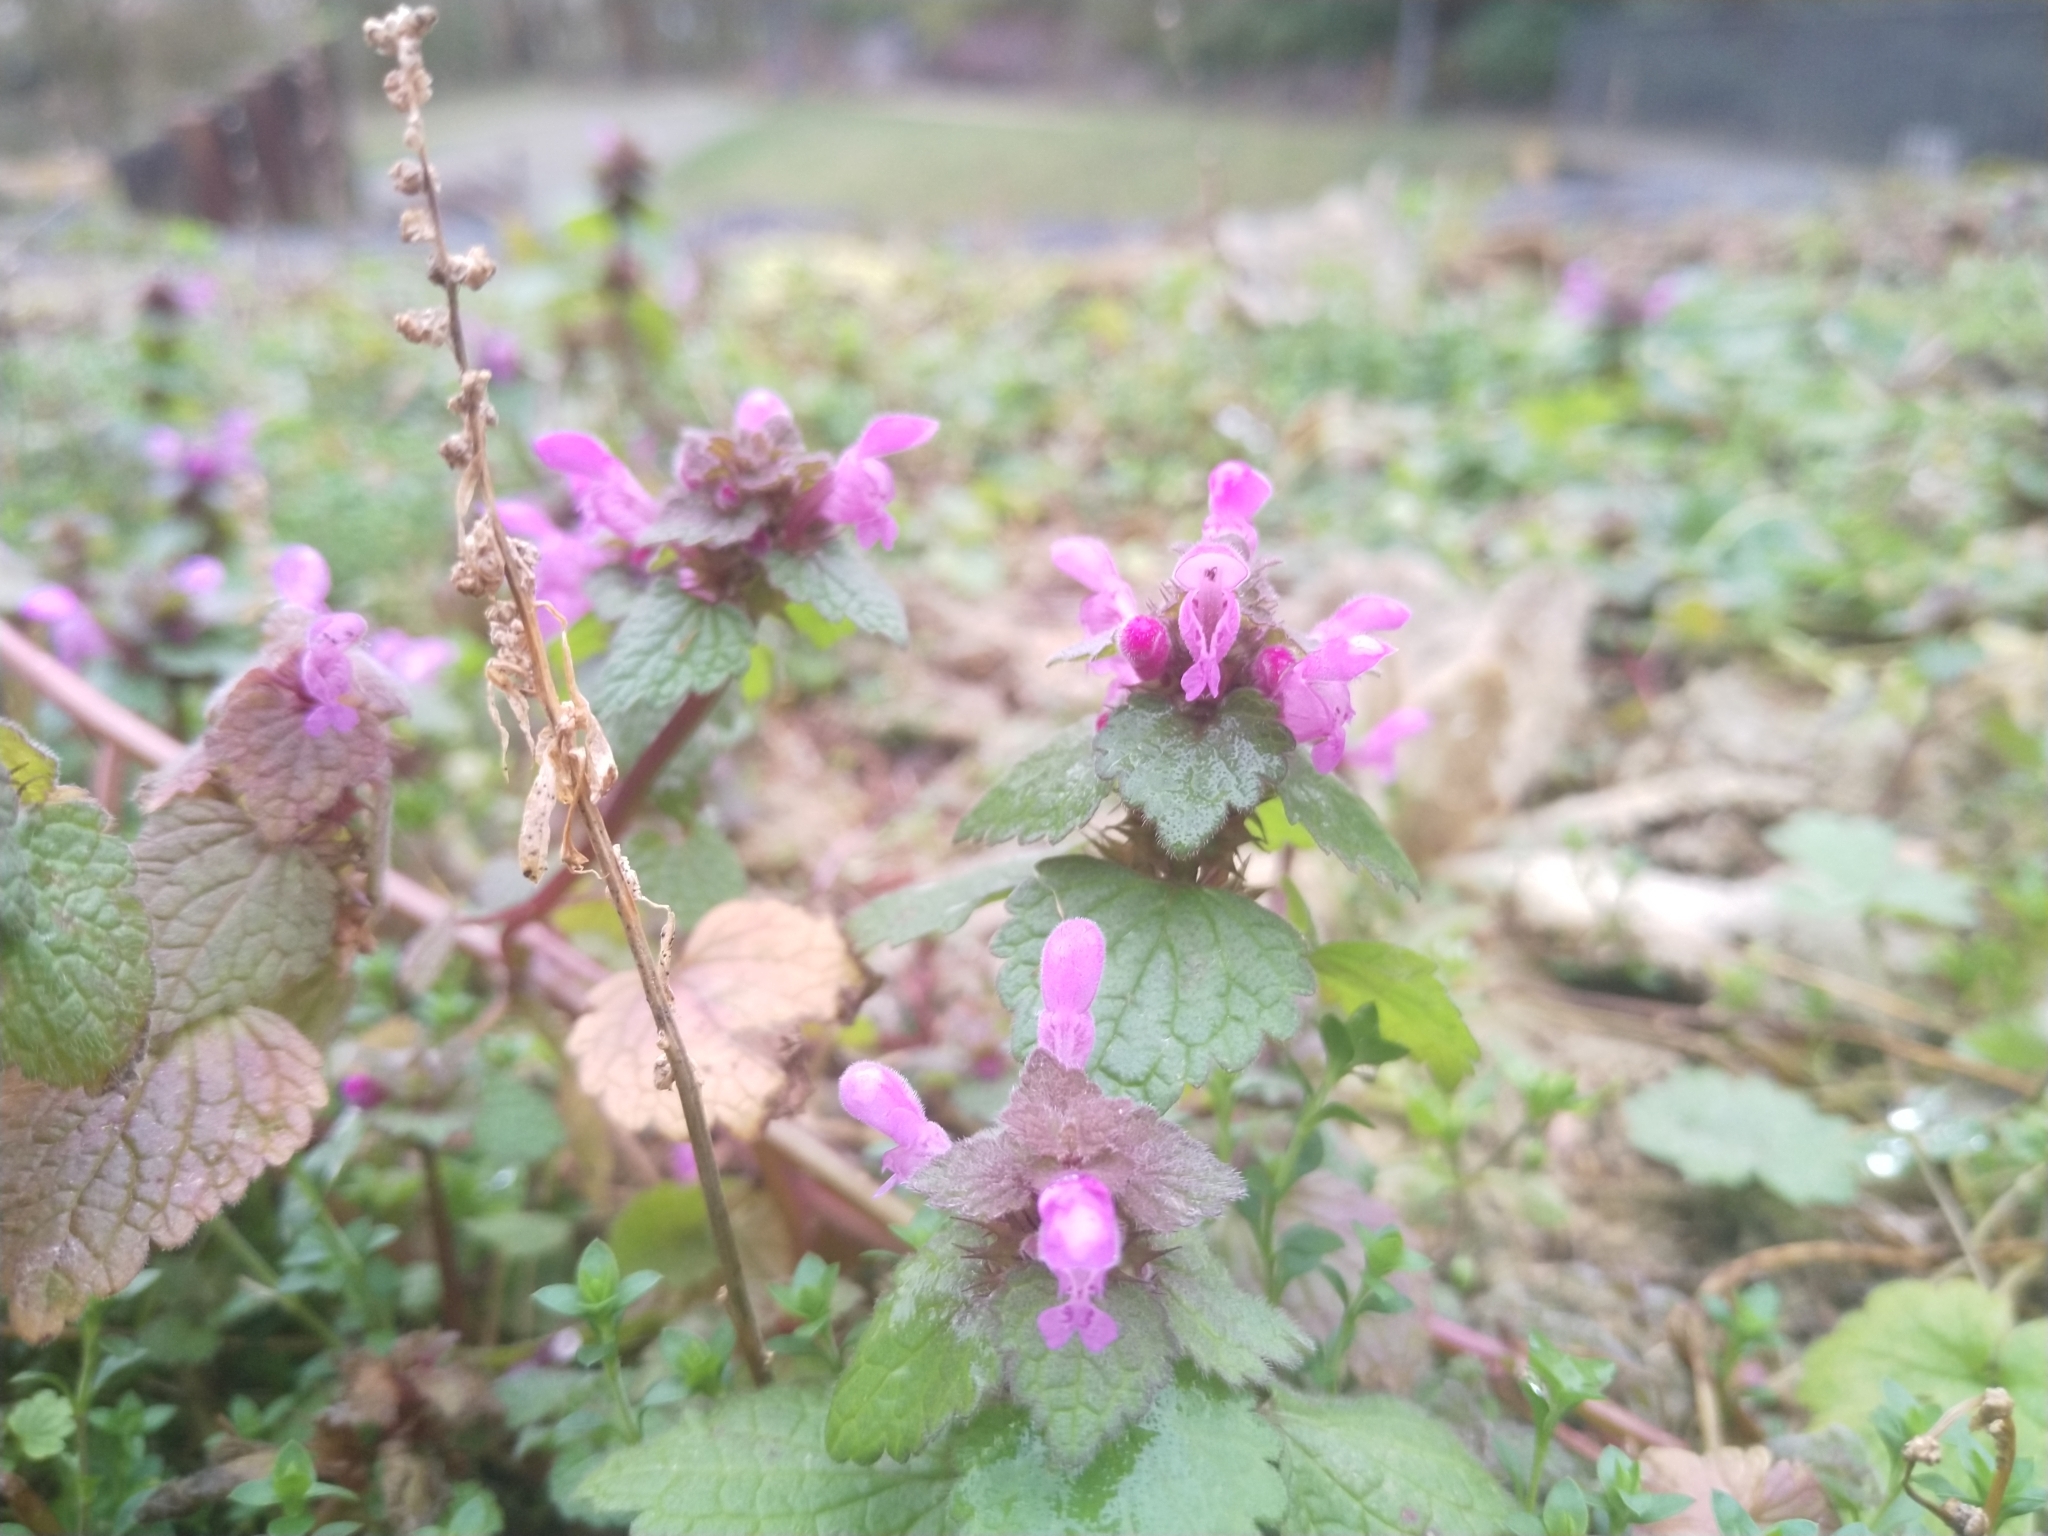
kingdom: Plantae
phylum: Tracheophyta
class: Magnoliopsida
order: Lamiales
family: Lamiaceae
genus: Lamium
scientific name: Lamium purpureum
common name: Red dead-nettle
